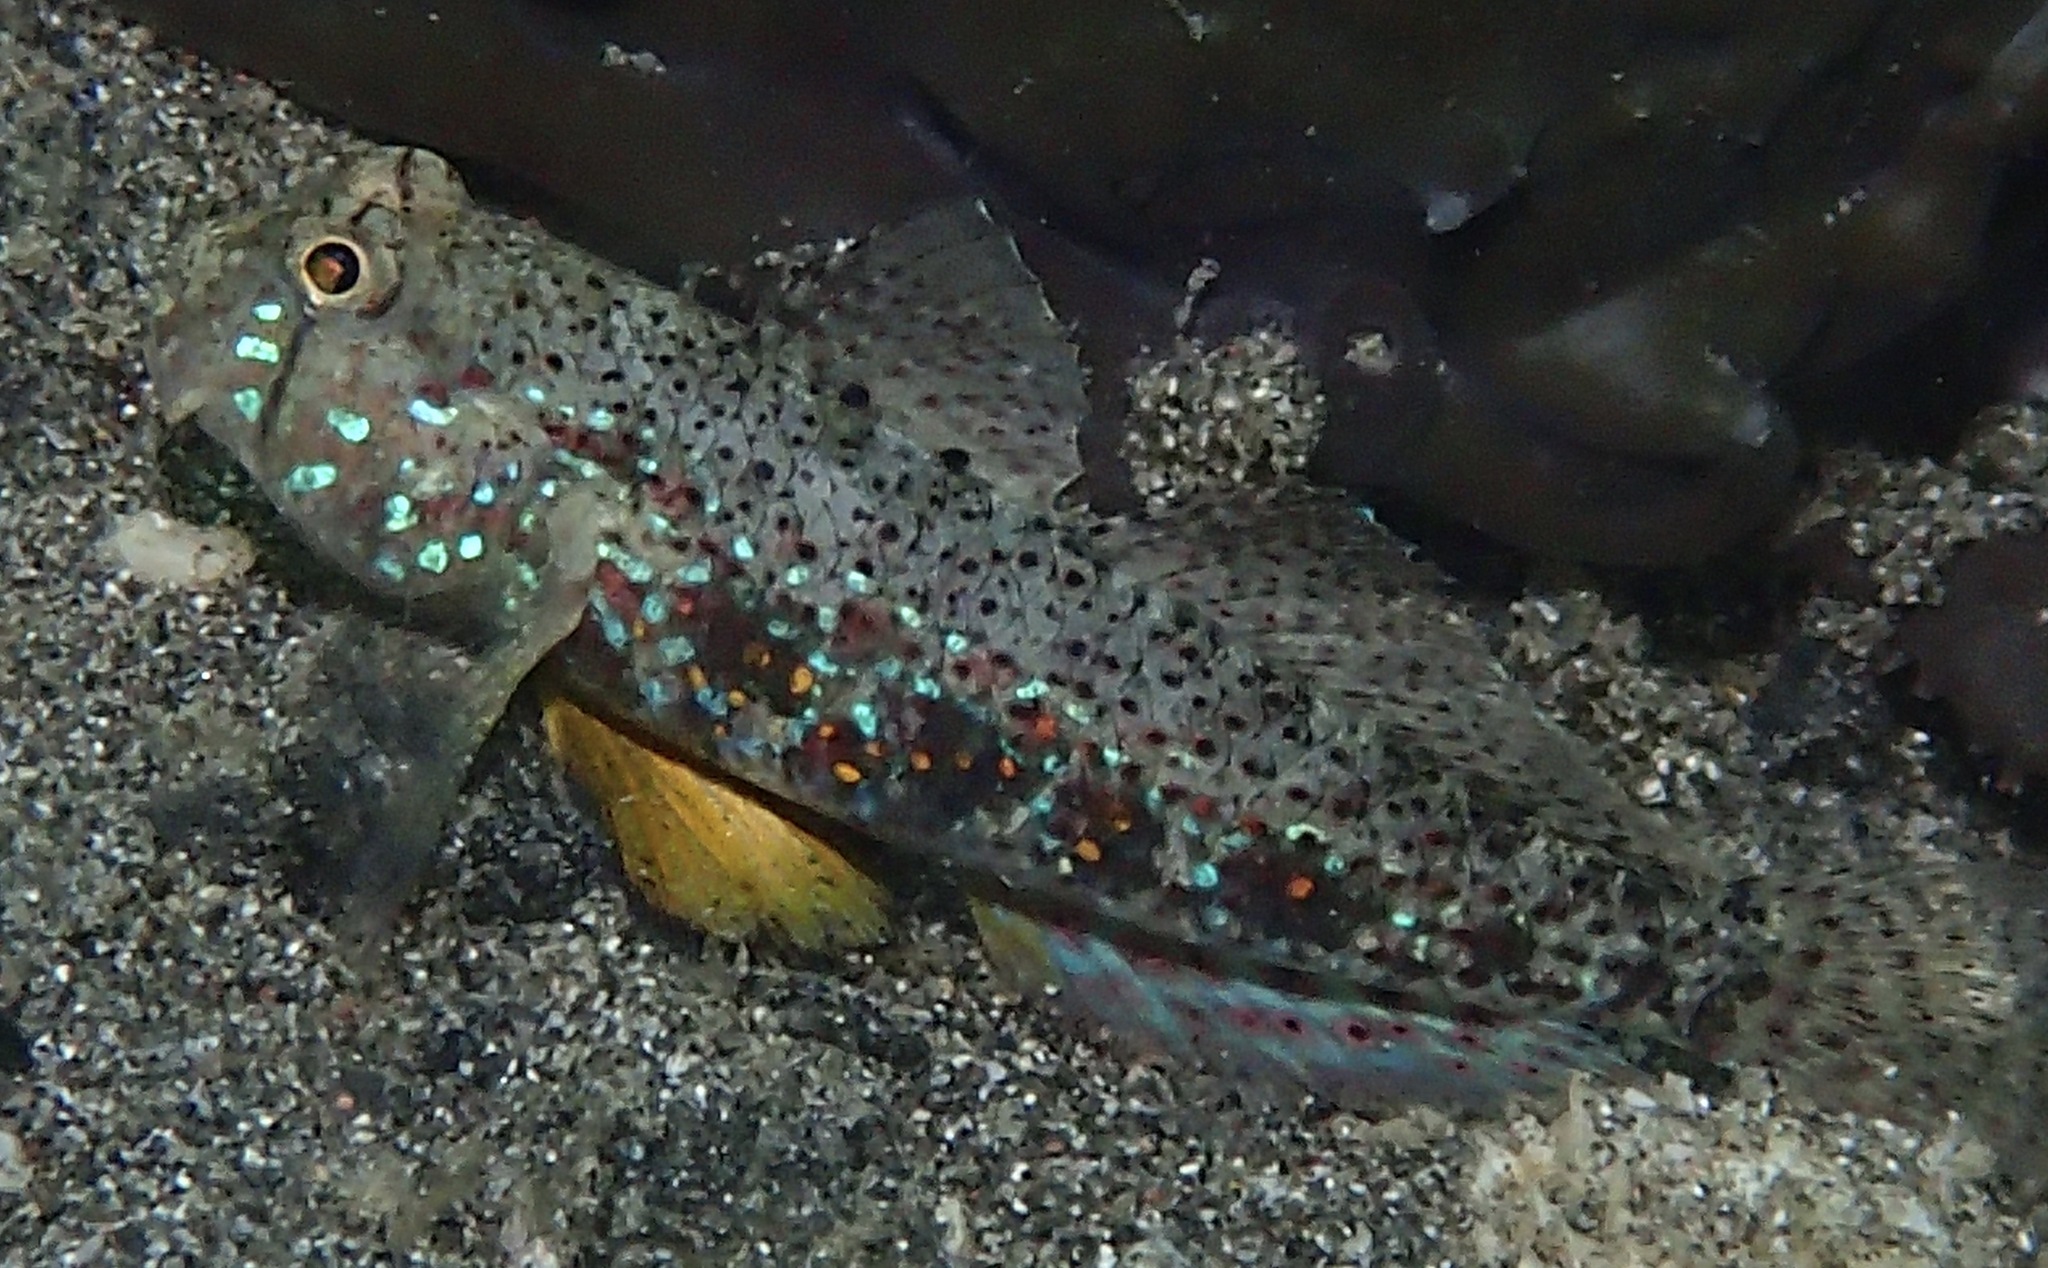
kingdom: Animalia
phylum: Chordata
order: Perciformes
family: Gobiidae
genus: Gnatholepis
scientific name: Gnatholepis ophthalmotaenia
